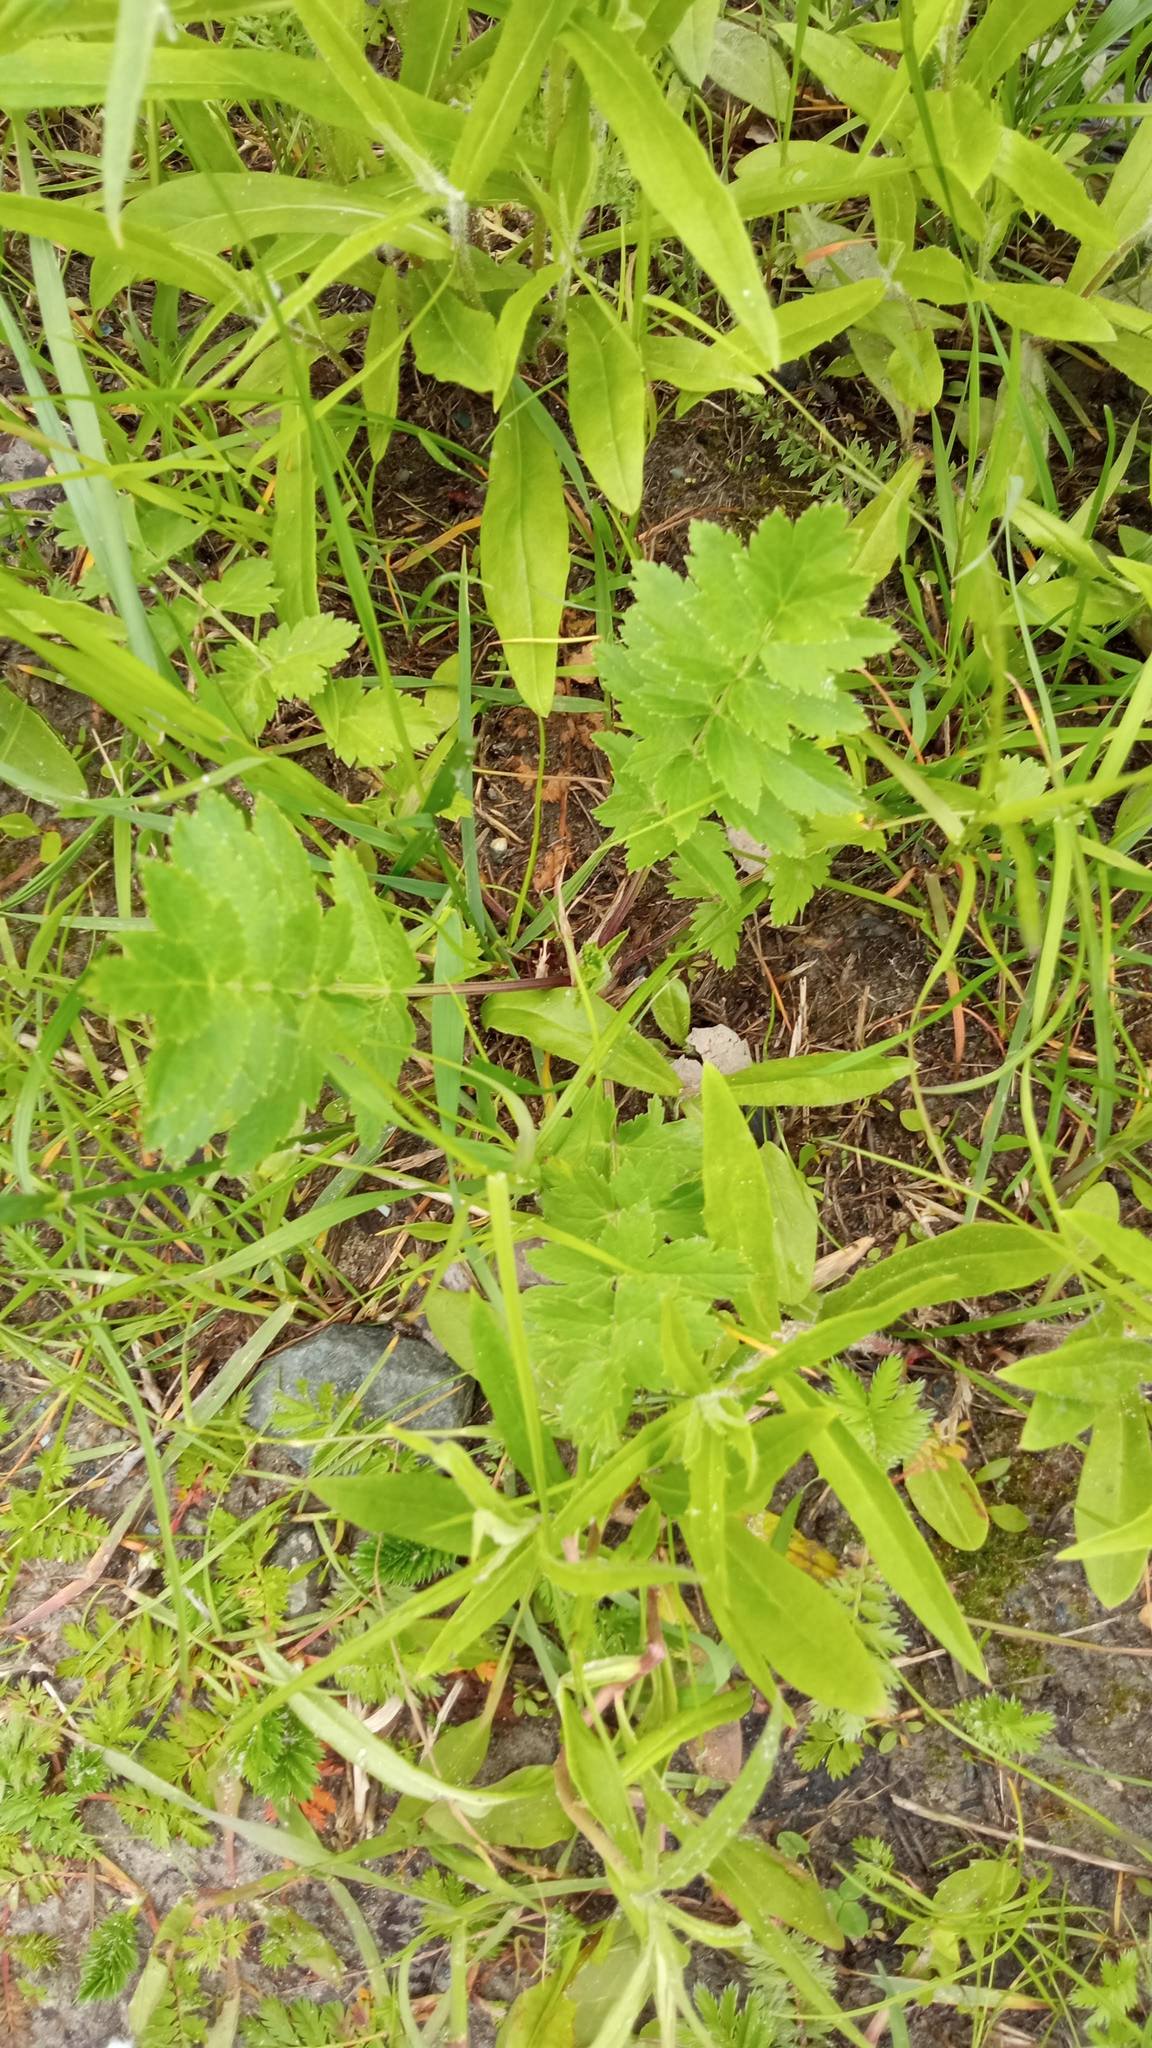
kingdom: Plantae
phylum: Tracheophyta
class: Magnoliopsida
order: Apiales
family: Apiaceae
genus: Pastinaca
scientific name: Pastinaca sativa
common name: Wild parsnip
